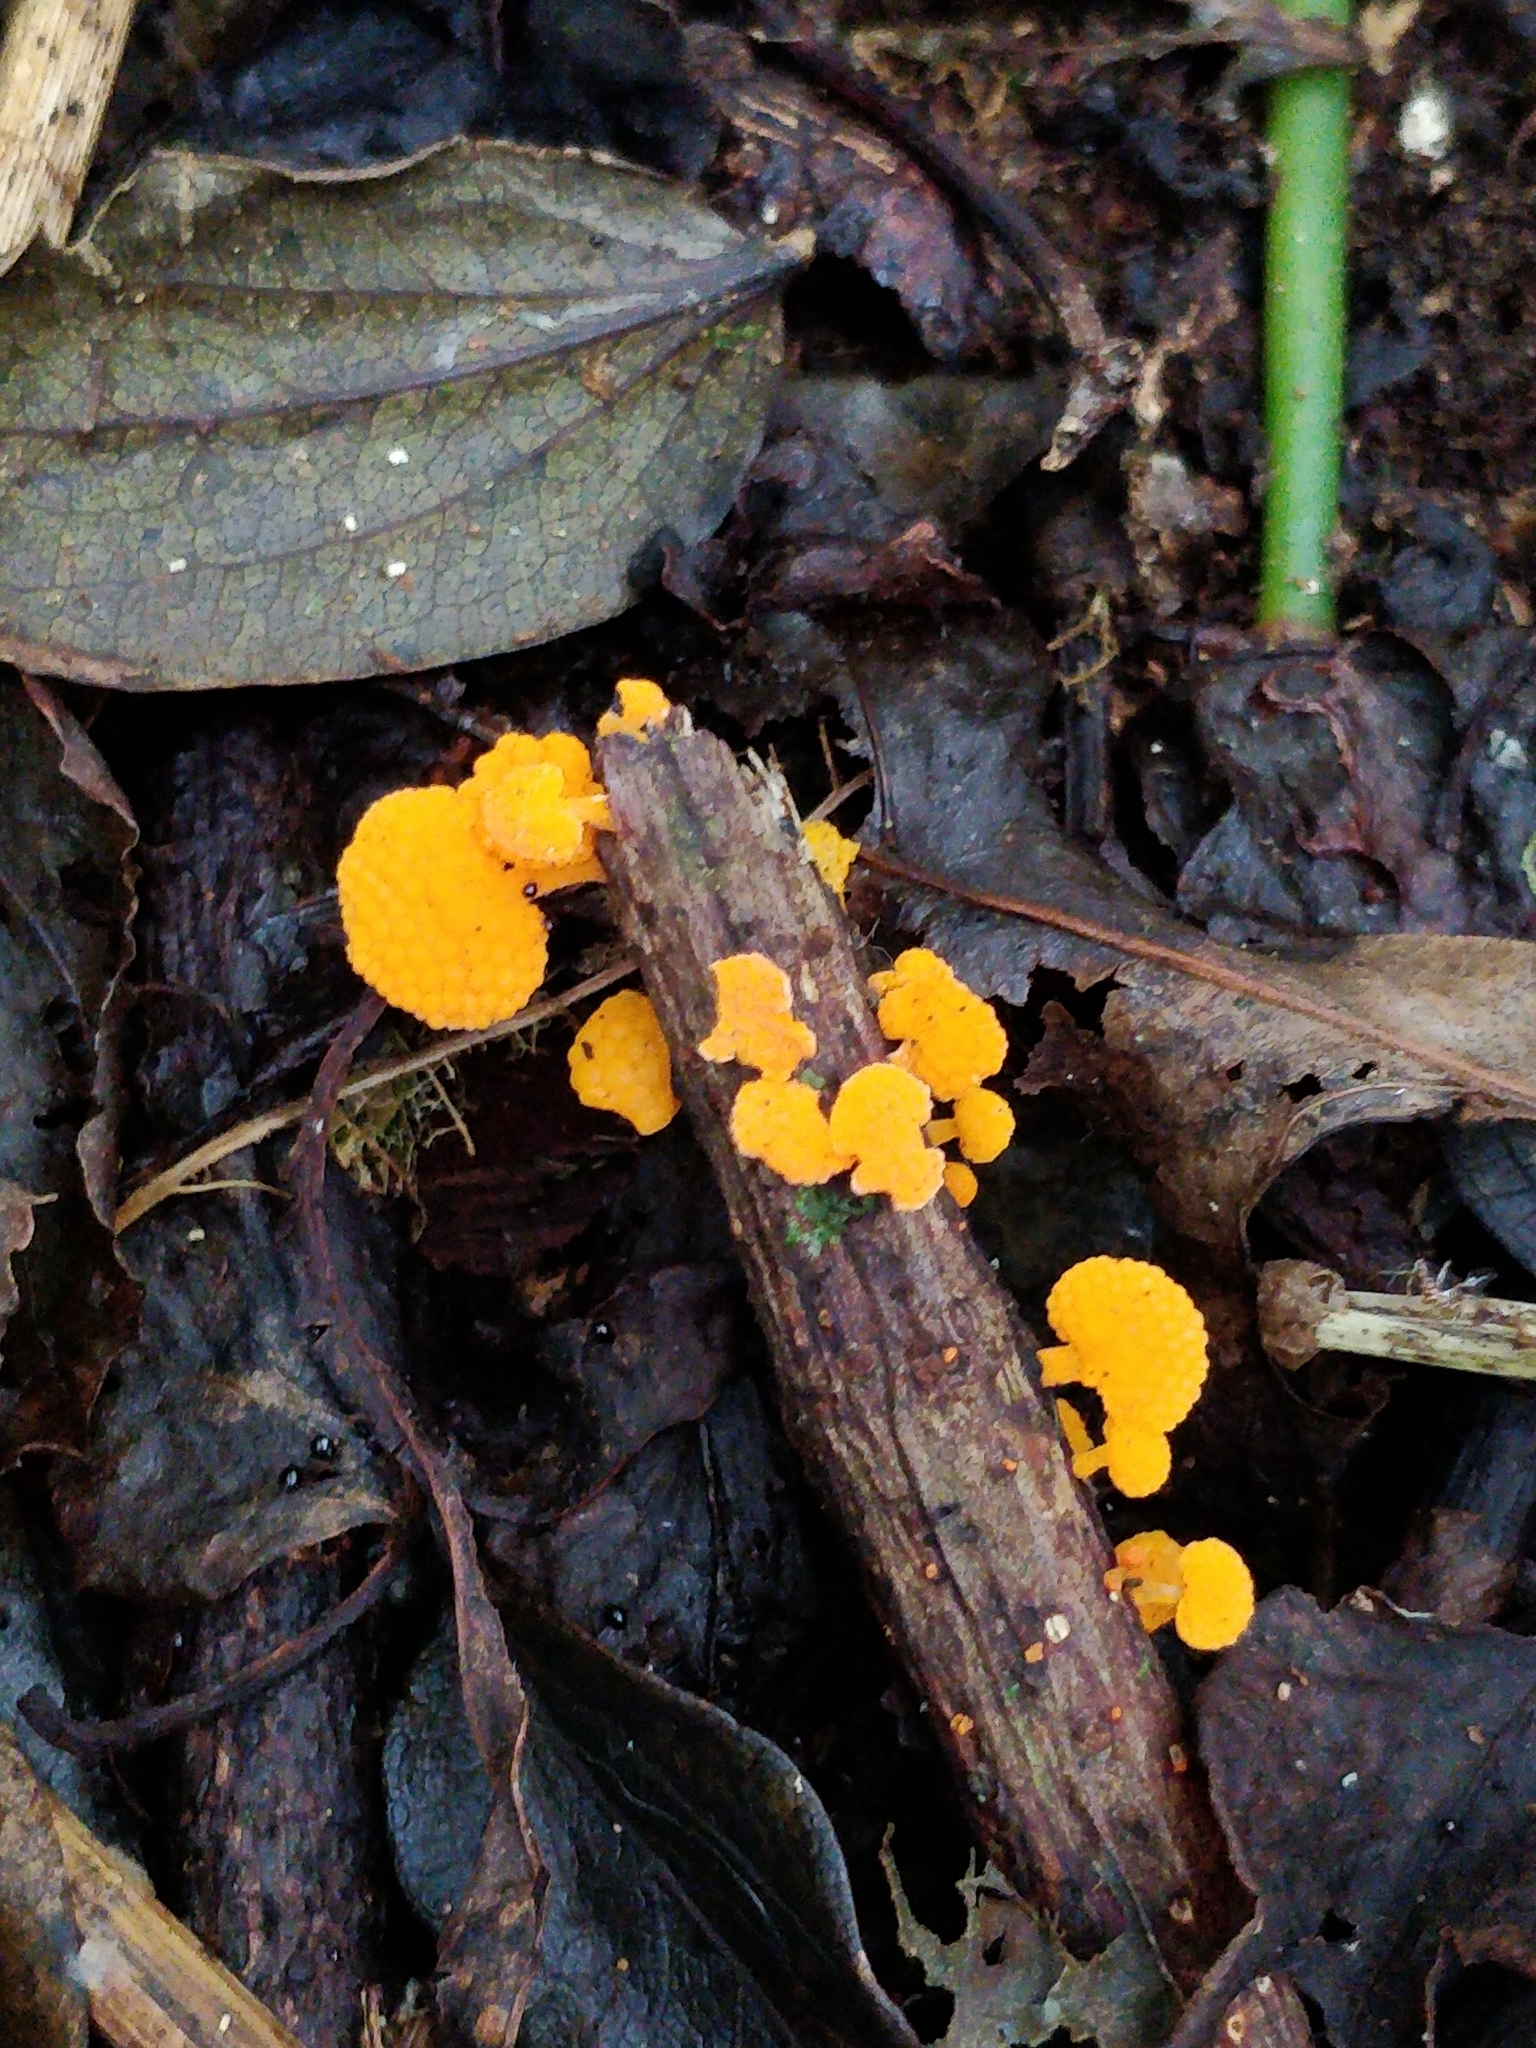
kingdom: Fungi
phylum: Basidiomycota
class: Agaricomycetes
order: Agaricales
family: Mycenaceae
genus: Favolaschia
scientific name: Favolaschia claudopus
